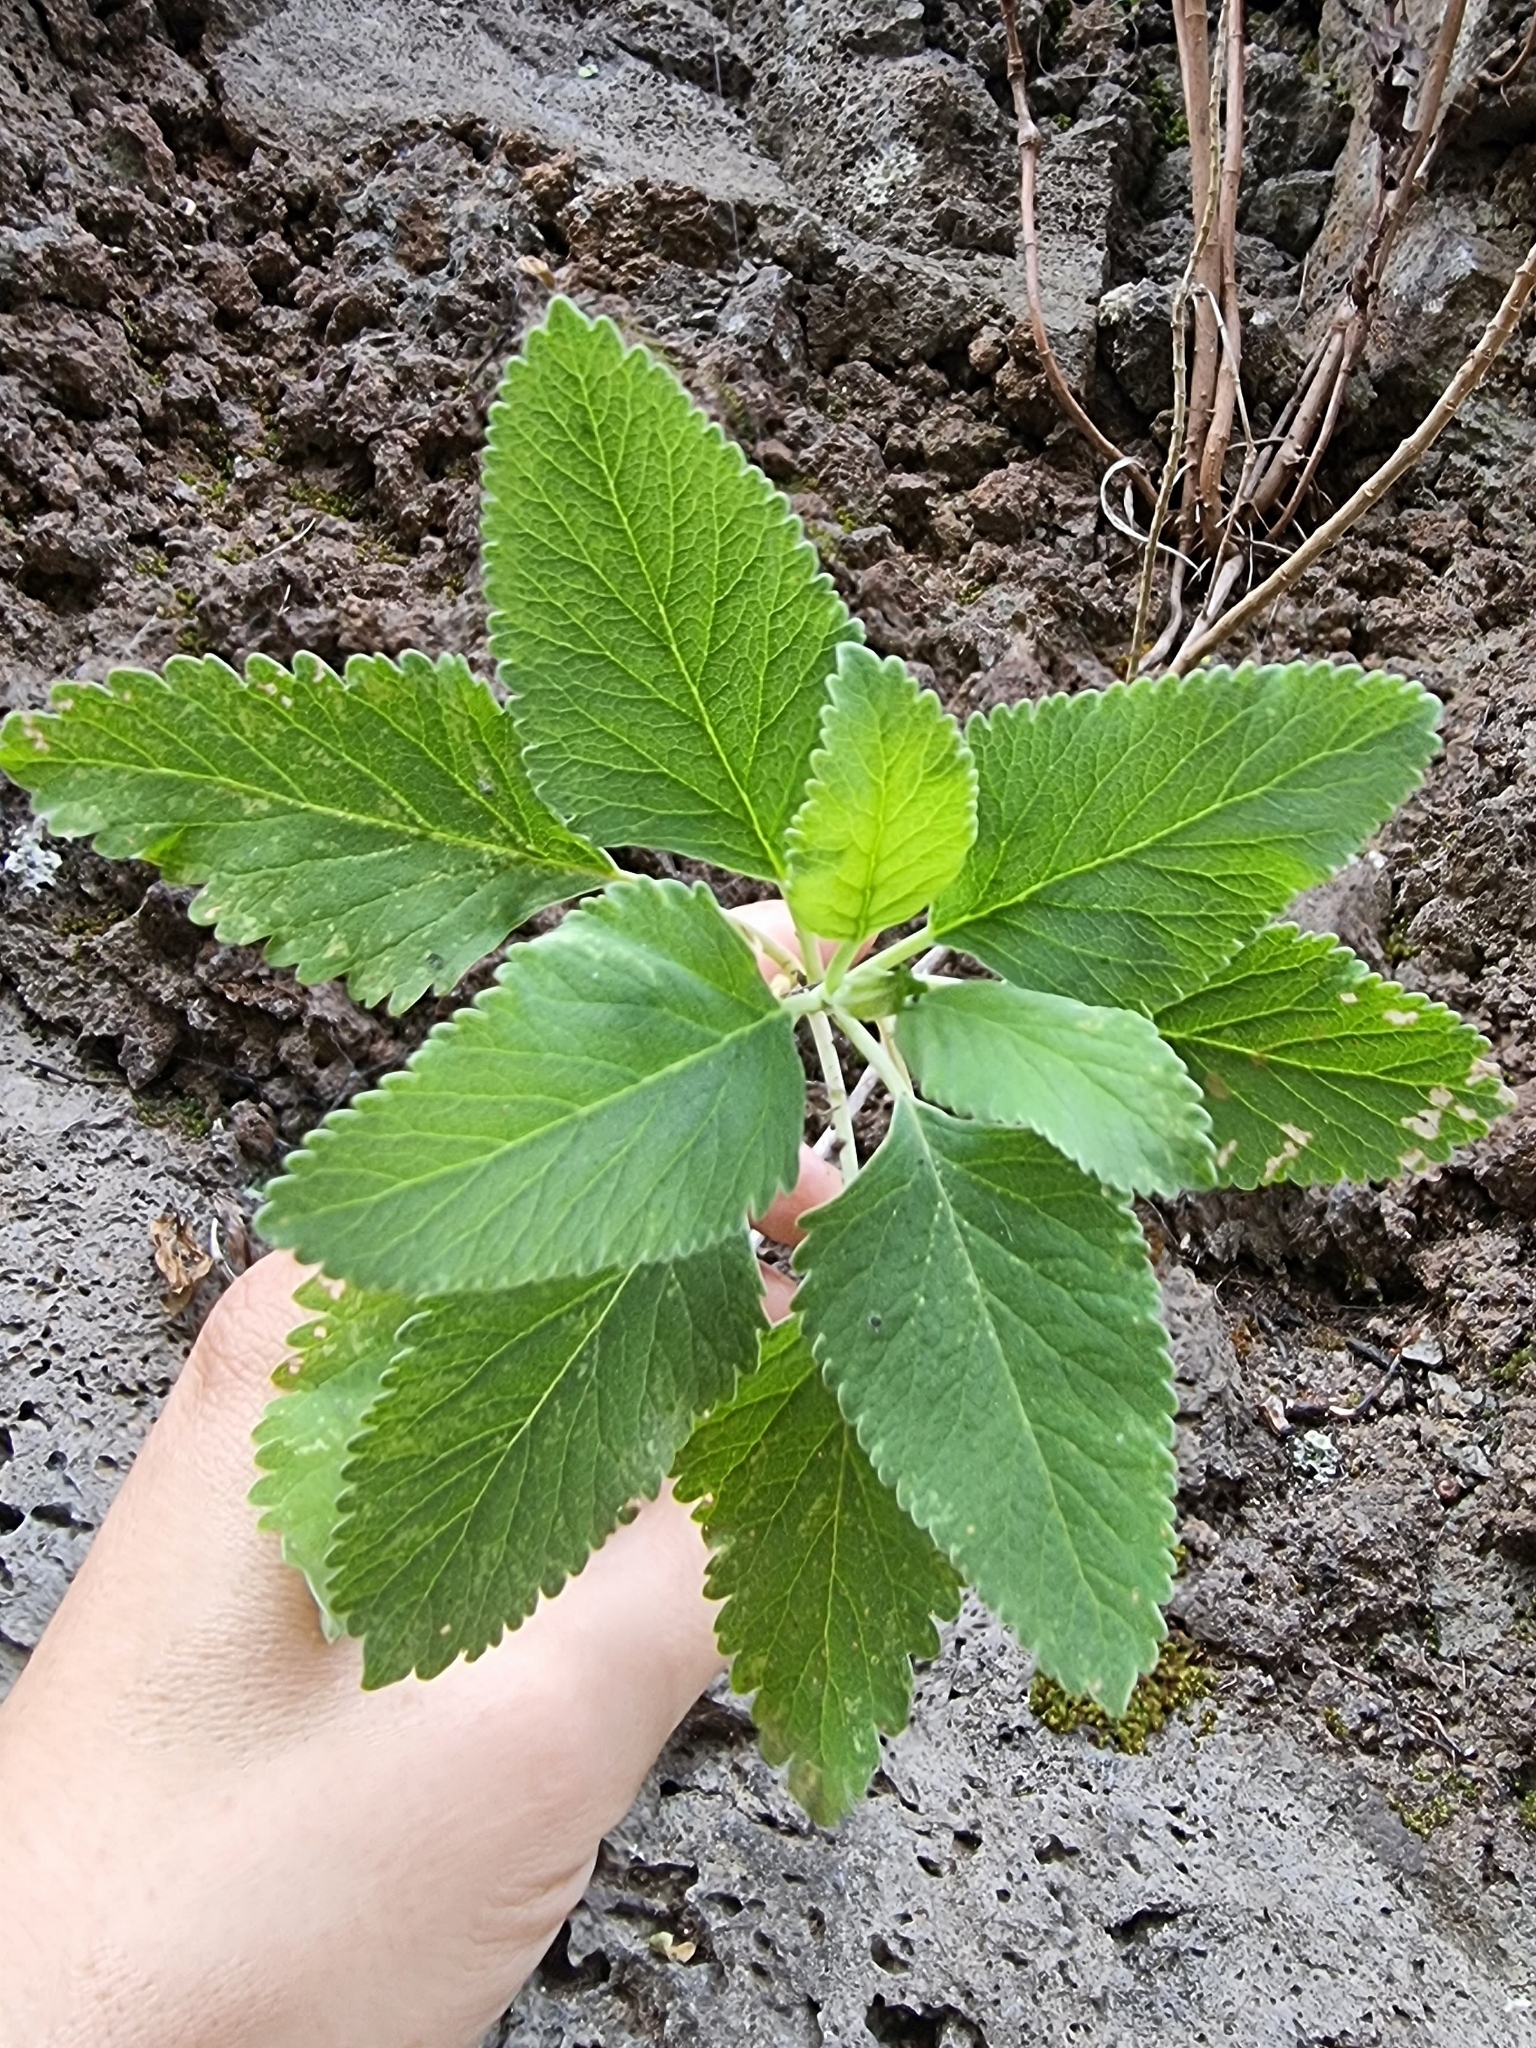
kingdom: Plantae
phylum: Tracheophyta
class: Magnoliopsida
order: Lamiales
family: Lamiaceae
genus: Teucrium
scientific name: Teucrium betonicum
